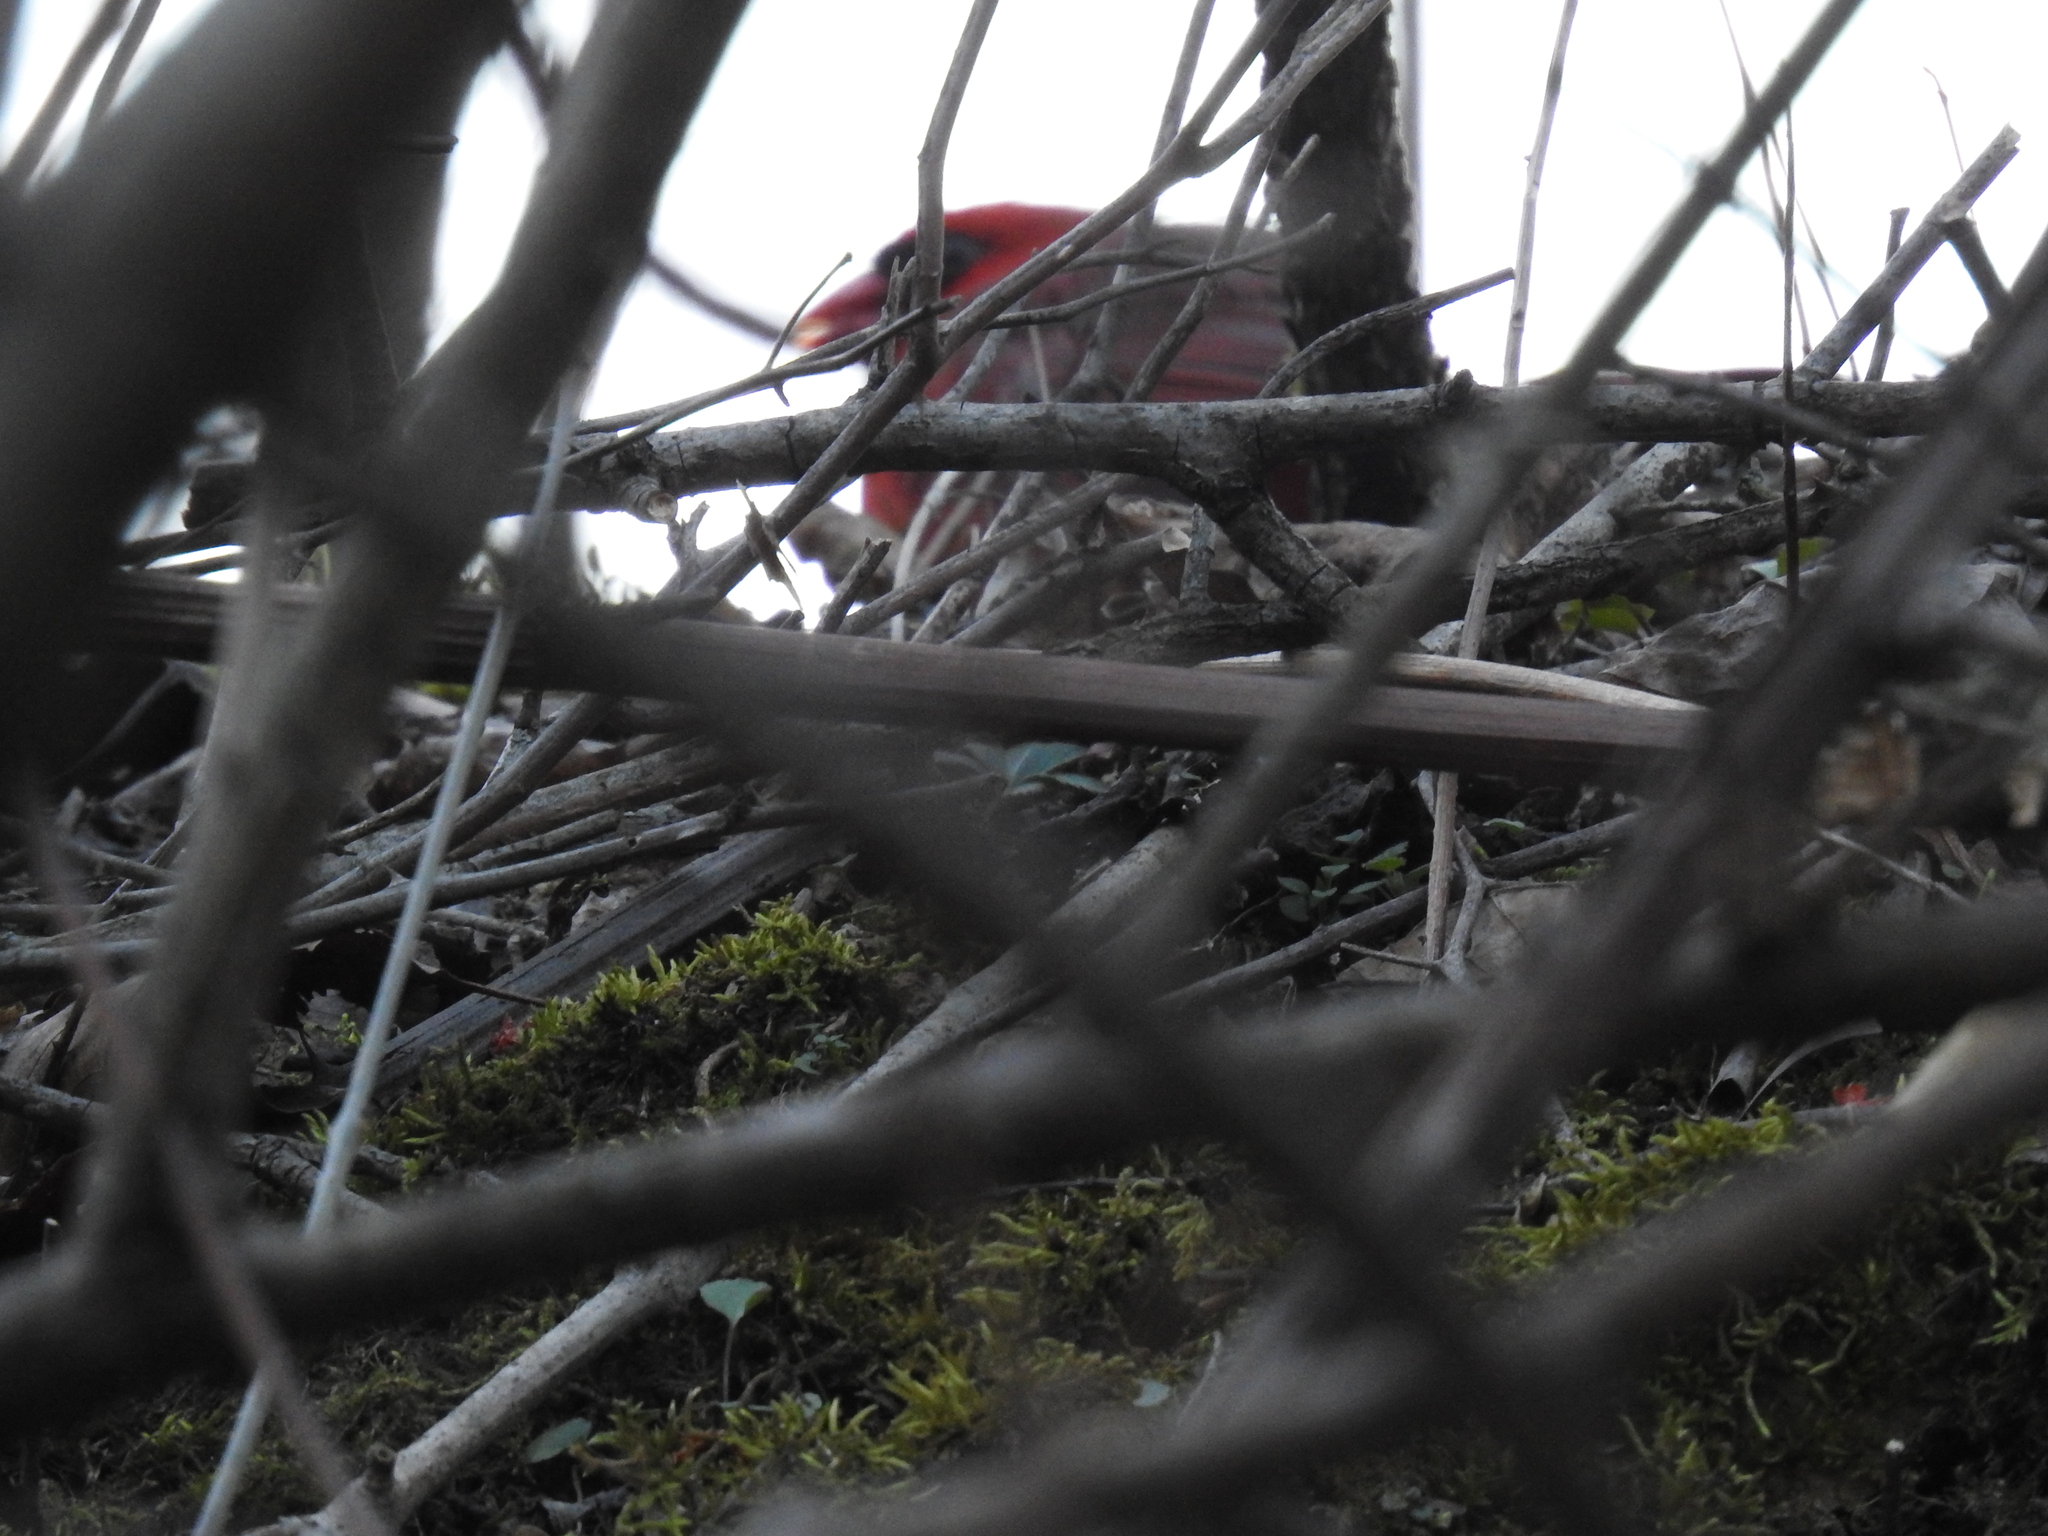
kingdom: Animalia
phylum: Chordata
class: Aves
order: Passeriformes
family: Cardinalidae
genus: Cardinalis
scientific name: Cardinalis cardinalis
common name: Northern cardinal
